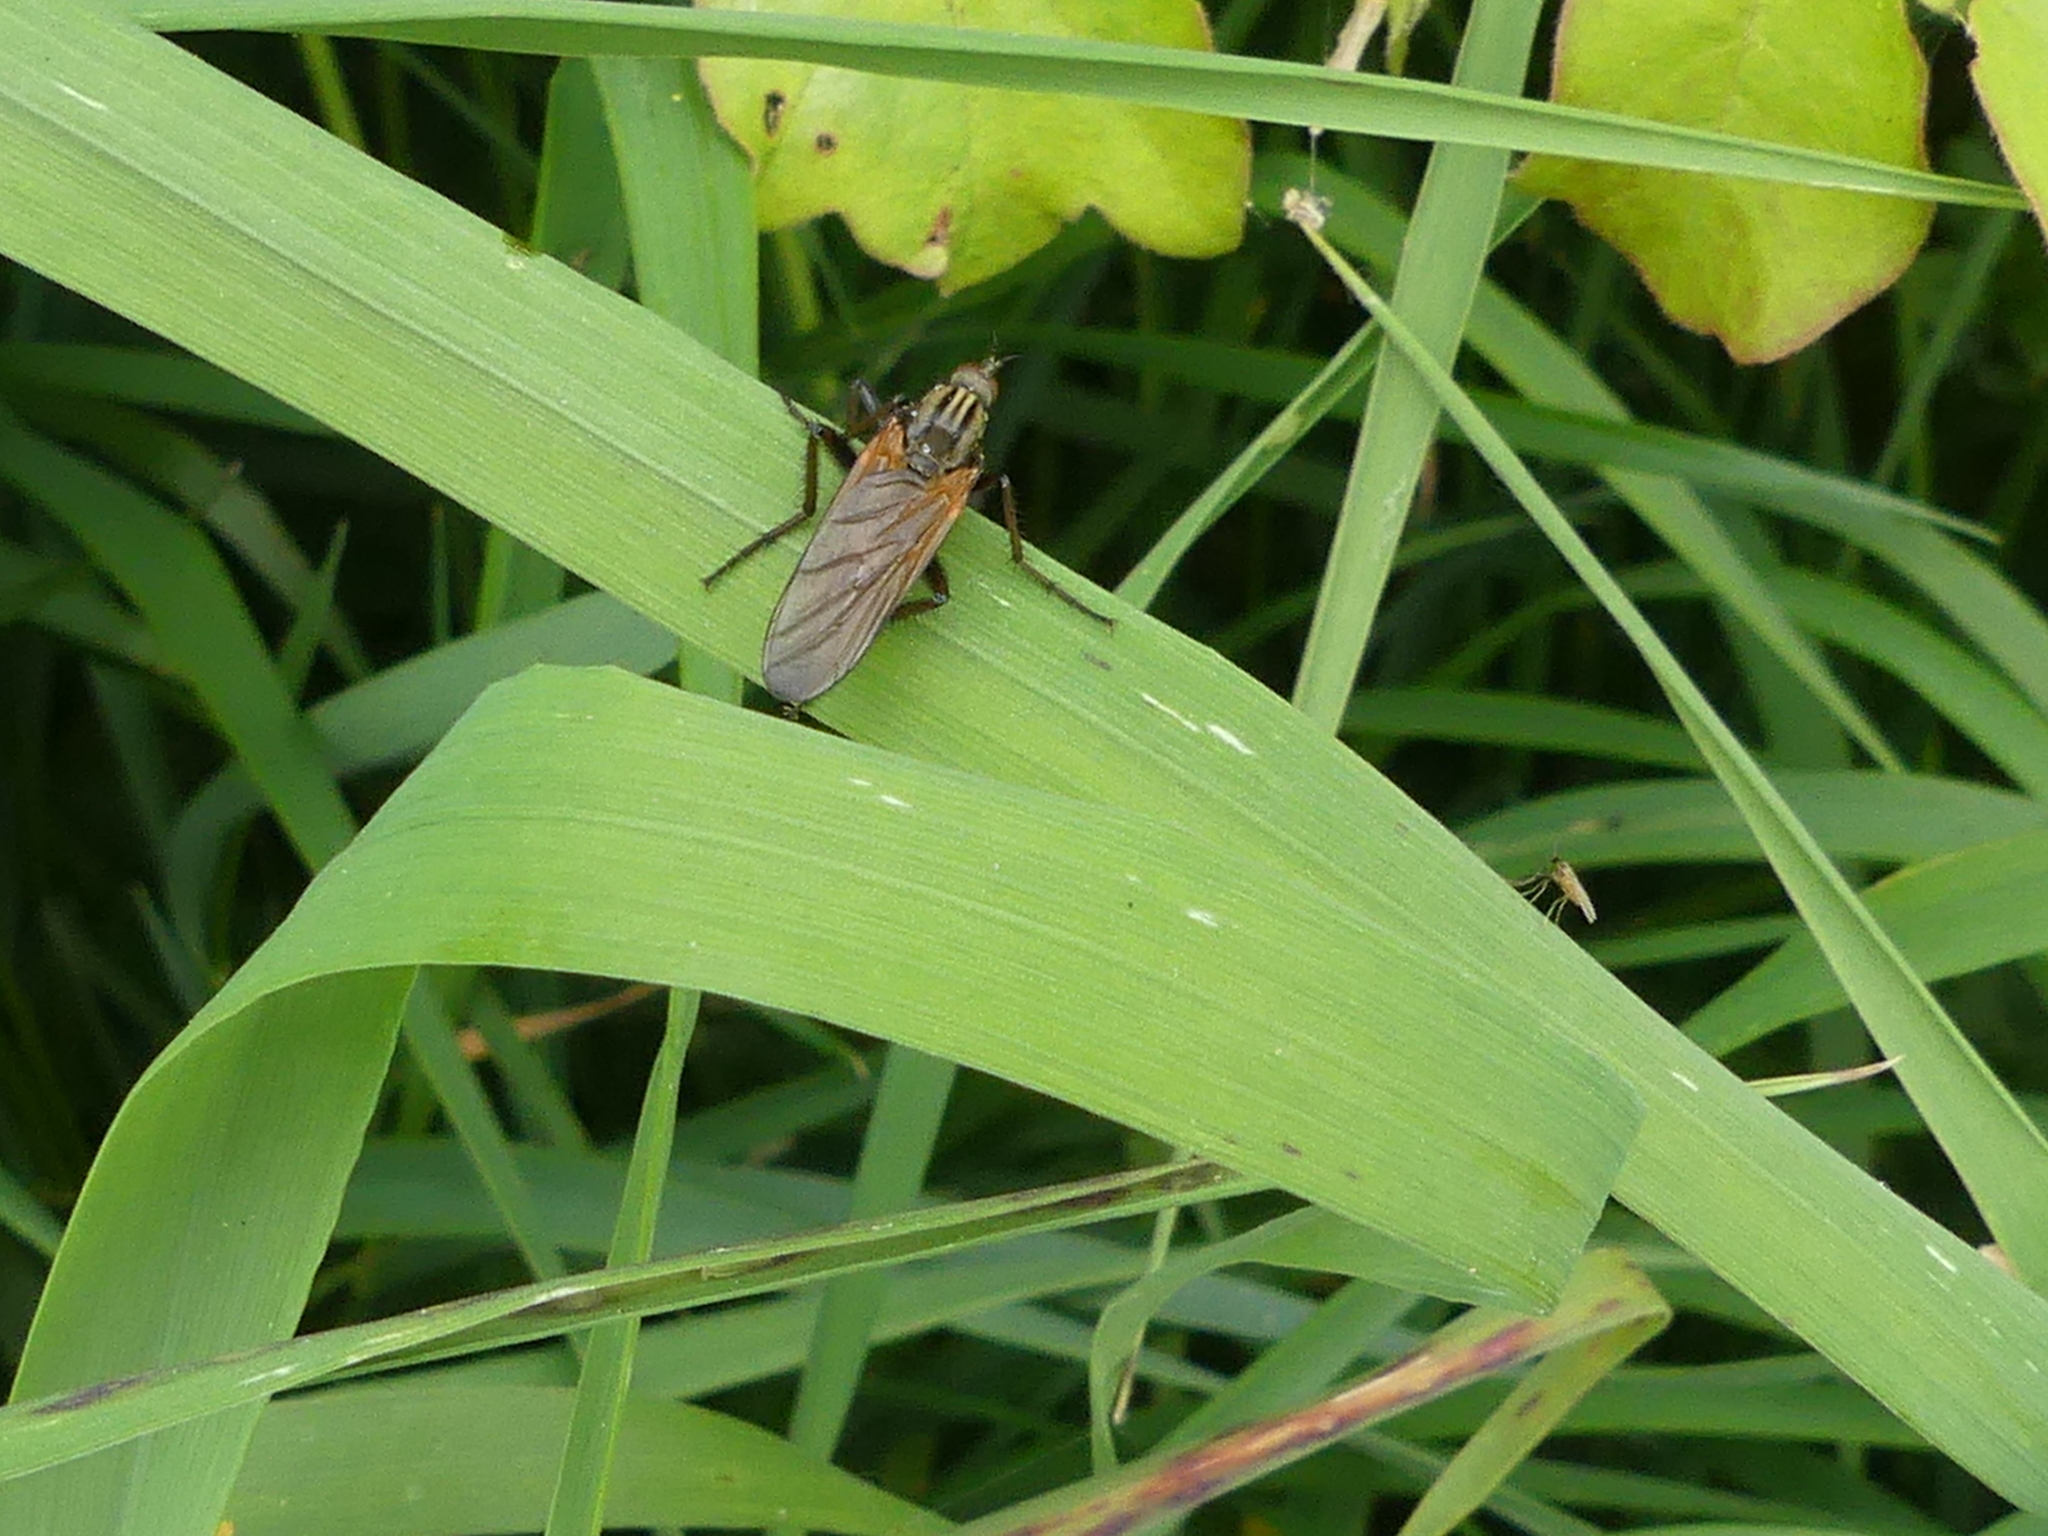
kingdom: Animalia
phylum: Arthropoda
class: Insecta
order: Diptera
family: Empididae
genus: Empis
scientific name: Empis tessellata
